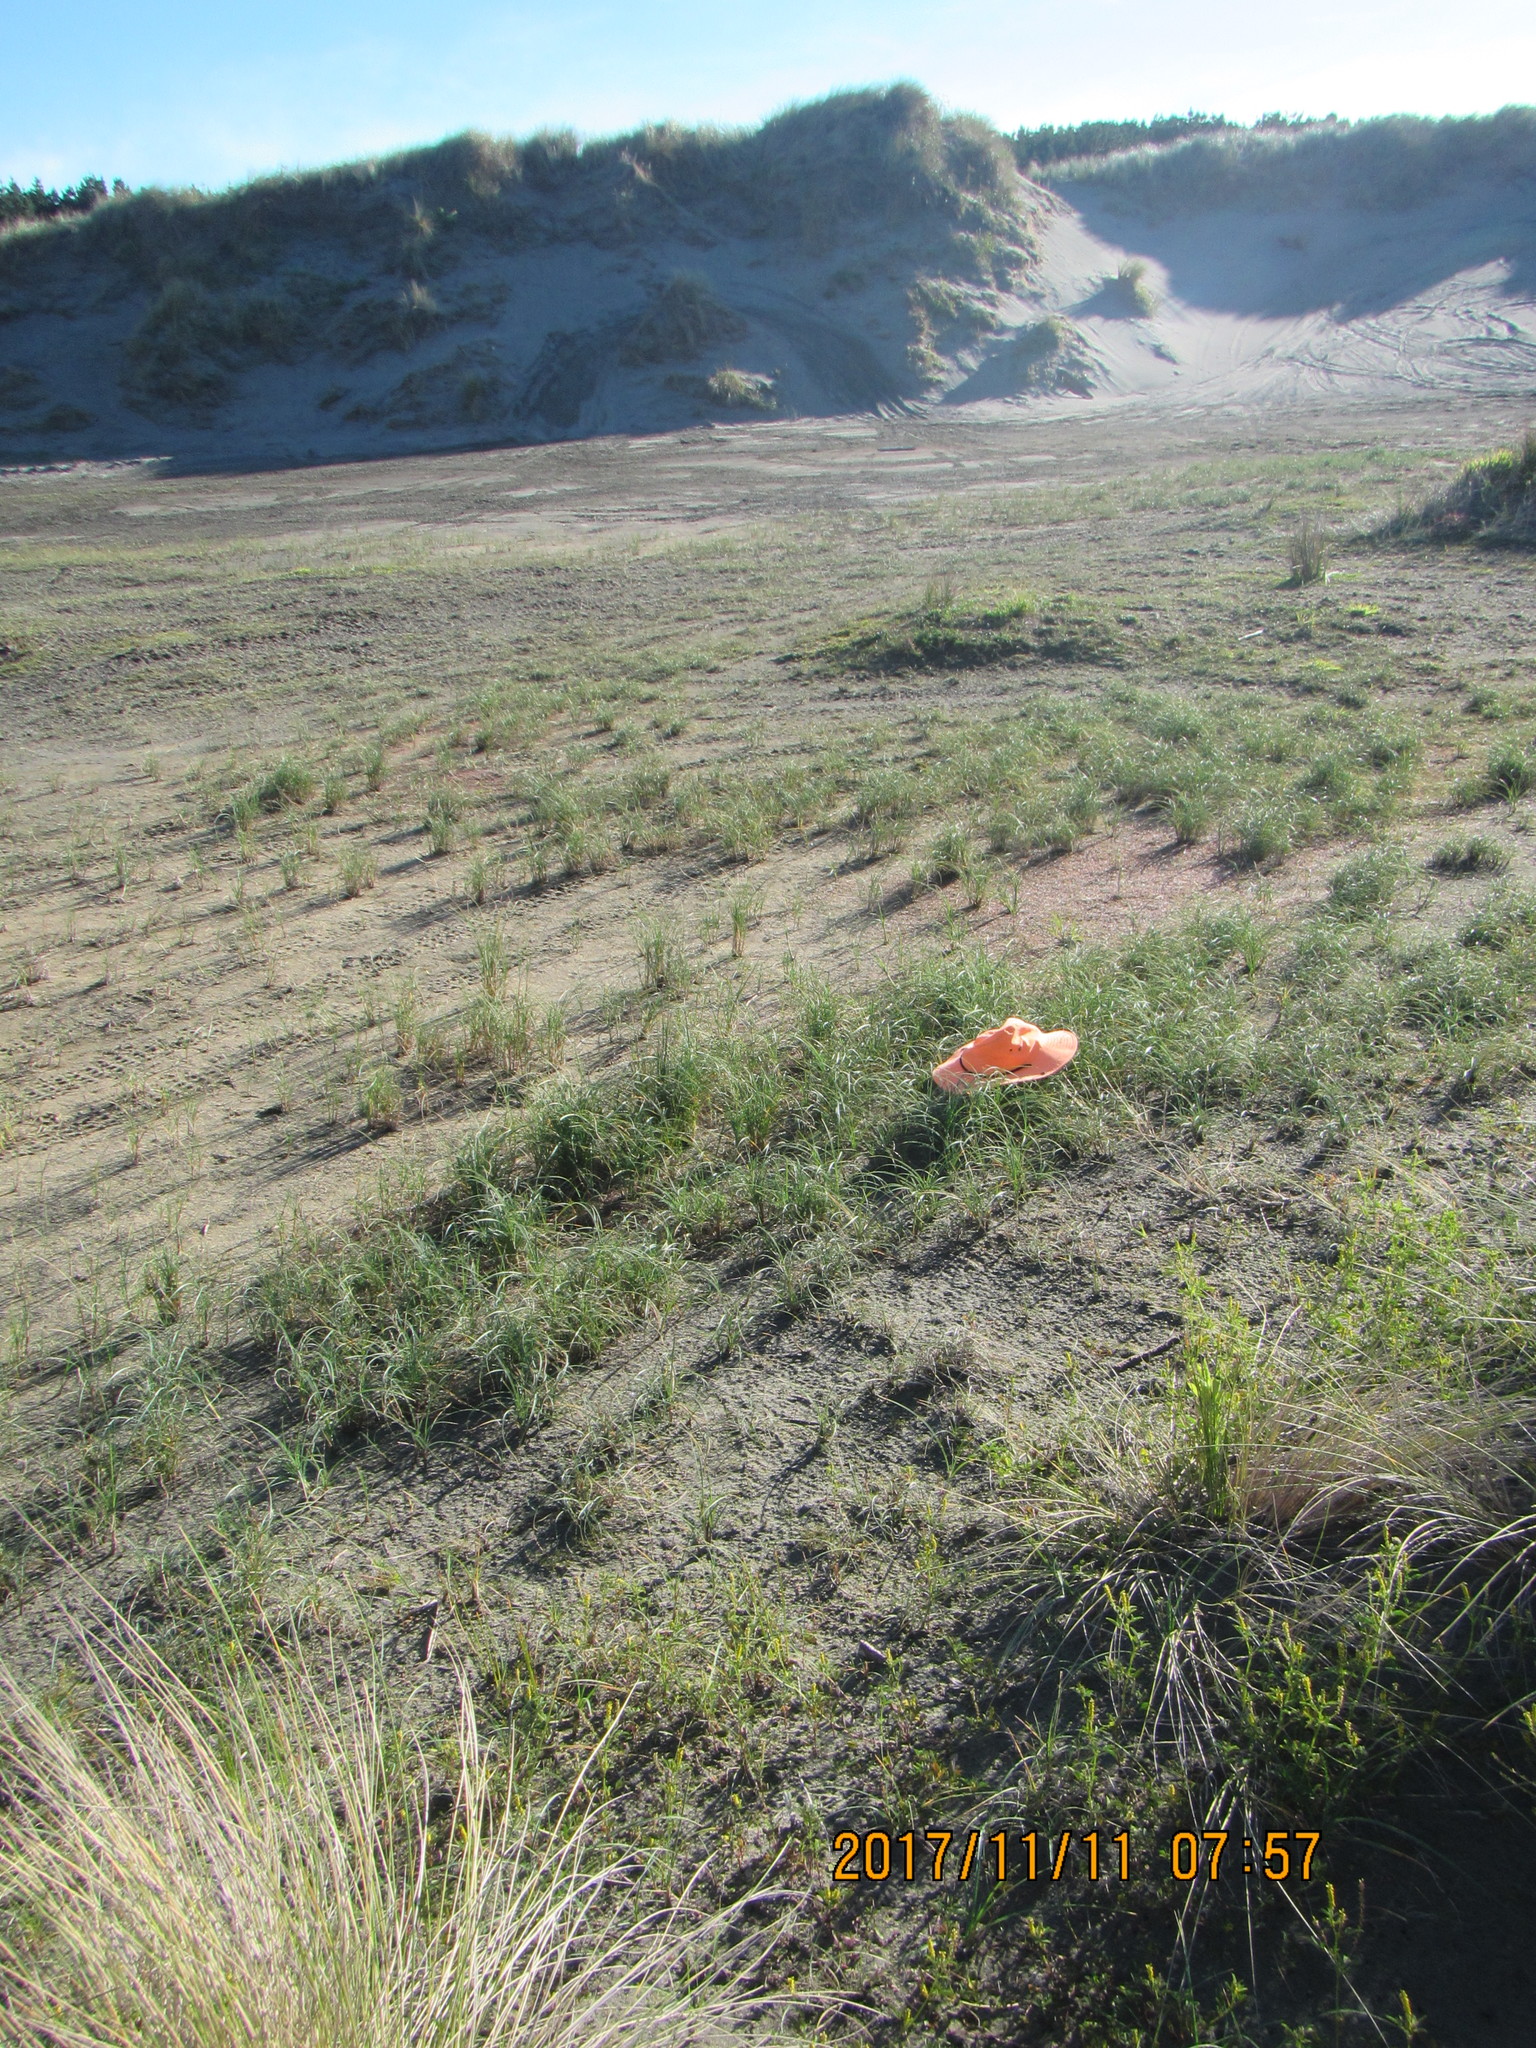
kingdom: Plantae
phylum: Tracheophyta
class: Liliopsida
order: Poales
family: Cyperaceae
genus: Carex
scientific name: Carex pumila
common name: Dwarf sedge
